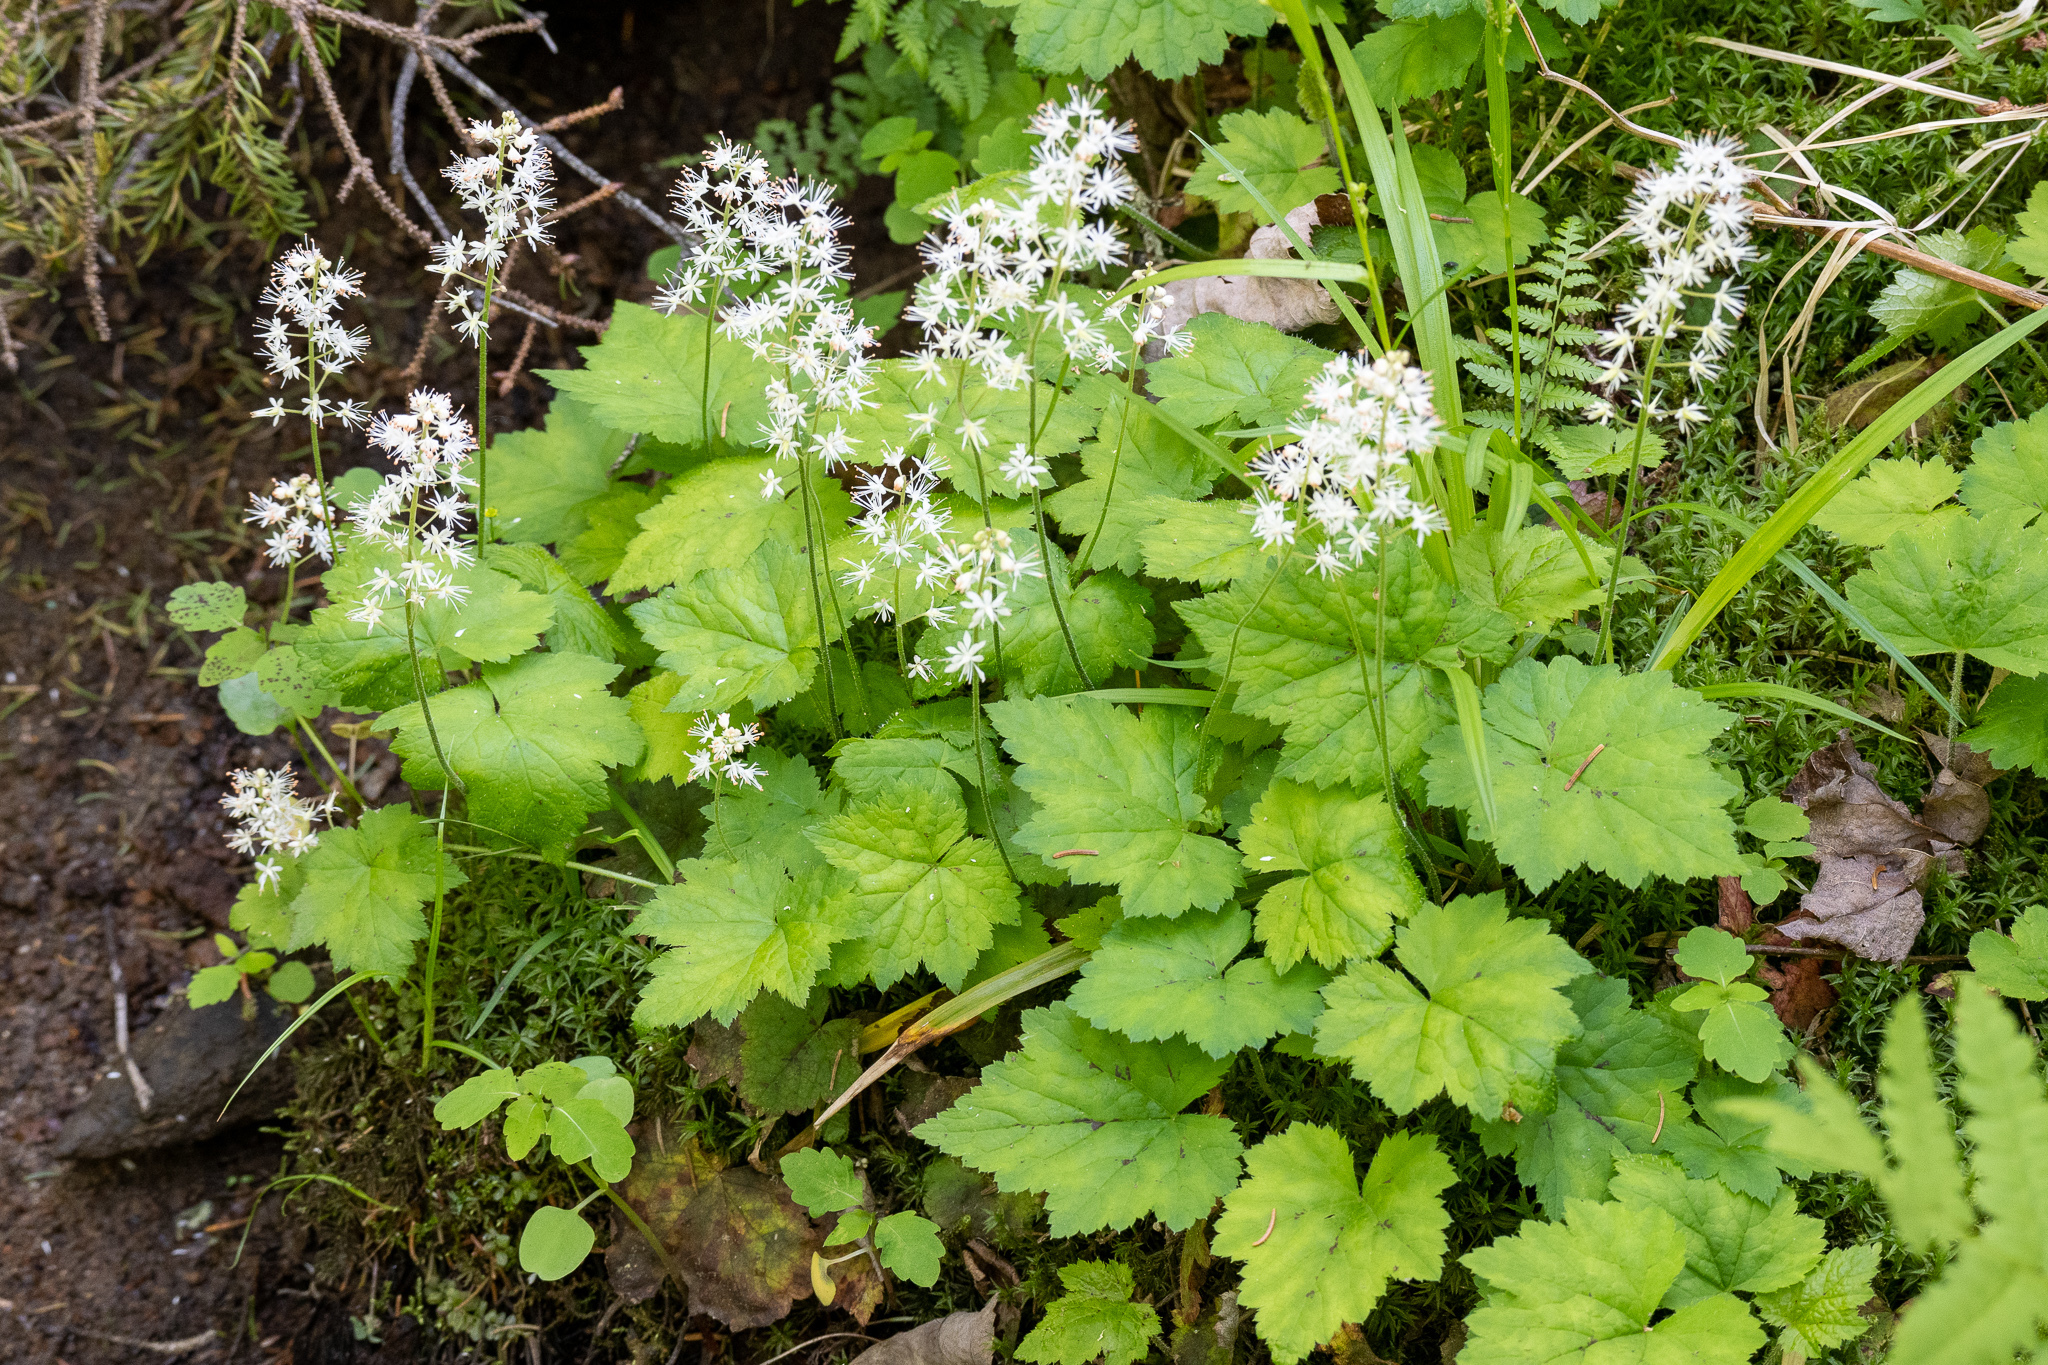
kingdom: Plantae
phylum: Tracheophyta
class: Magnoliopsida
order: Saxifragales
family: Saxifragaceae
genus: Tiarella
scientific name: Tiarella stolonifera
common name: Stoloniferous foamflower
